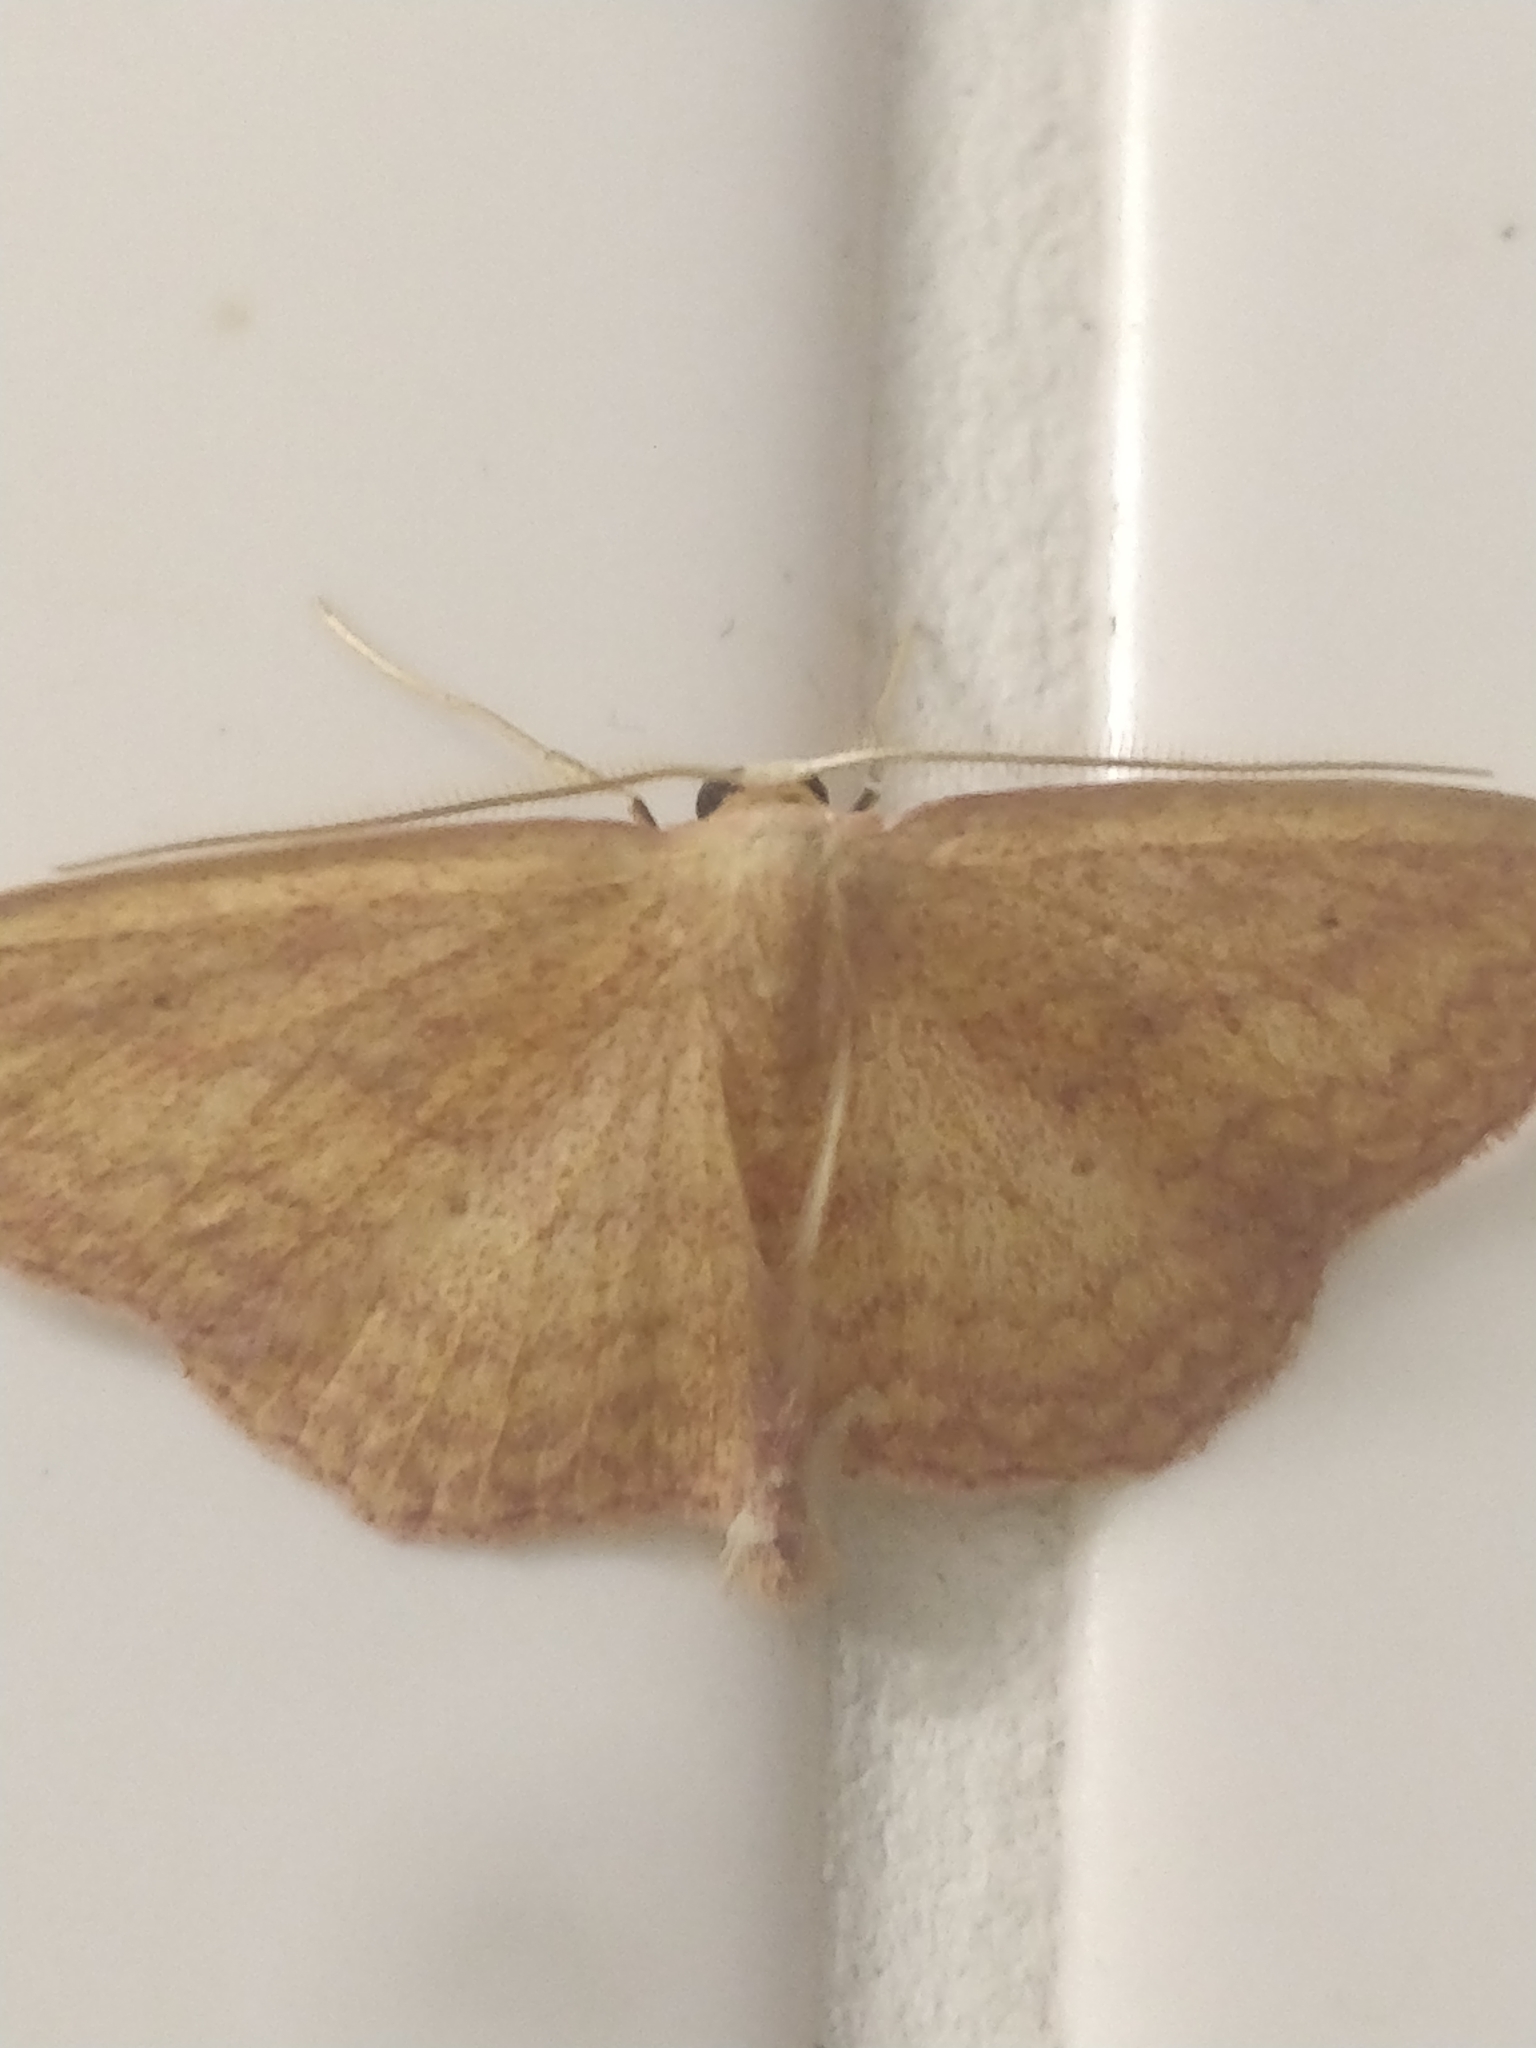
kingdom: Animalia
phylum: Arthropoda
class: Insecta
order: Lepidoptera
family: Geometridae
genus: Scopula
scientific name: Scopula irrorata
